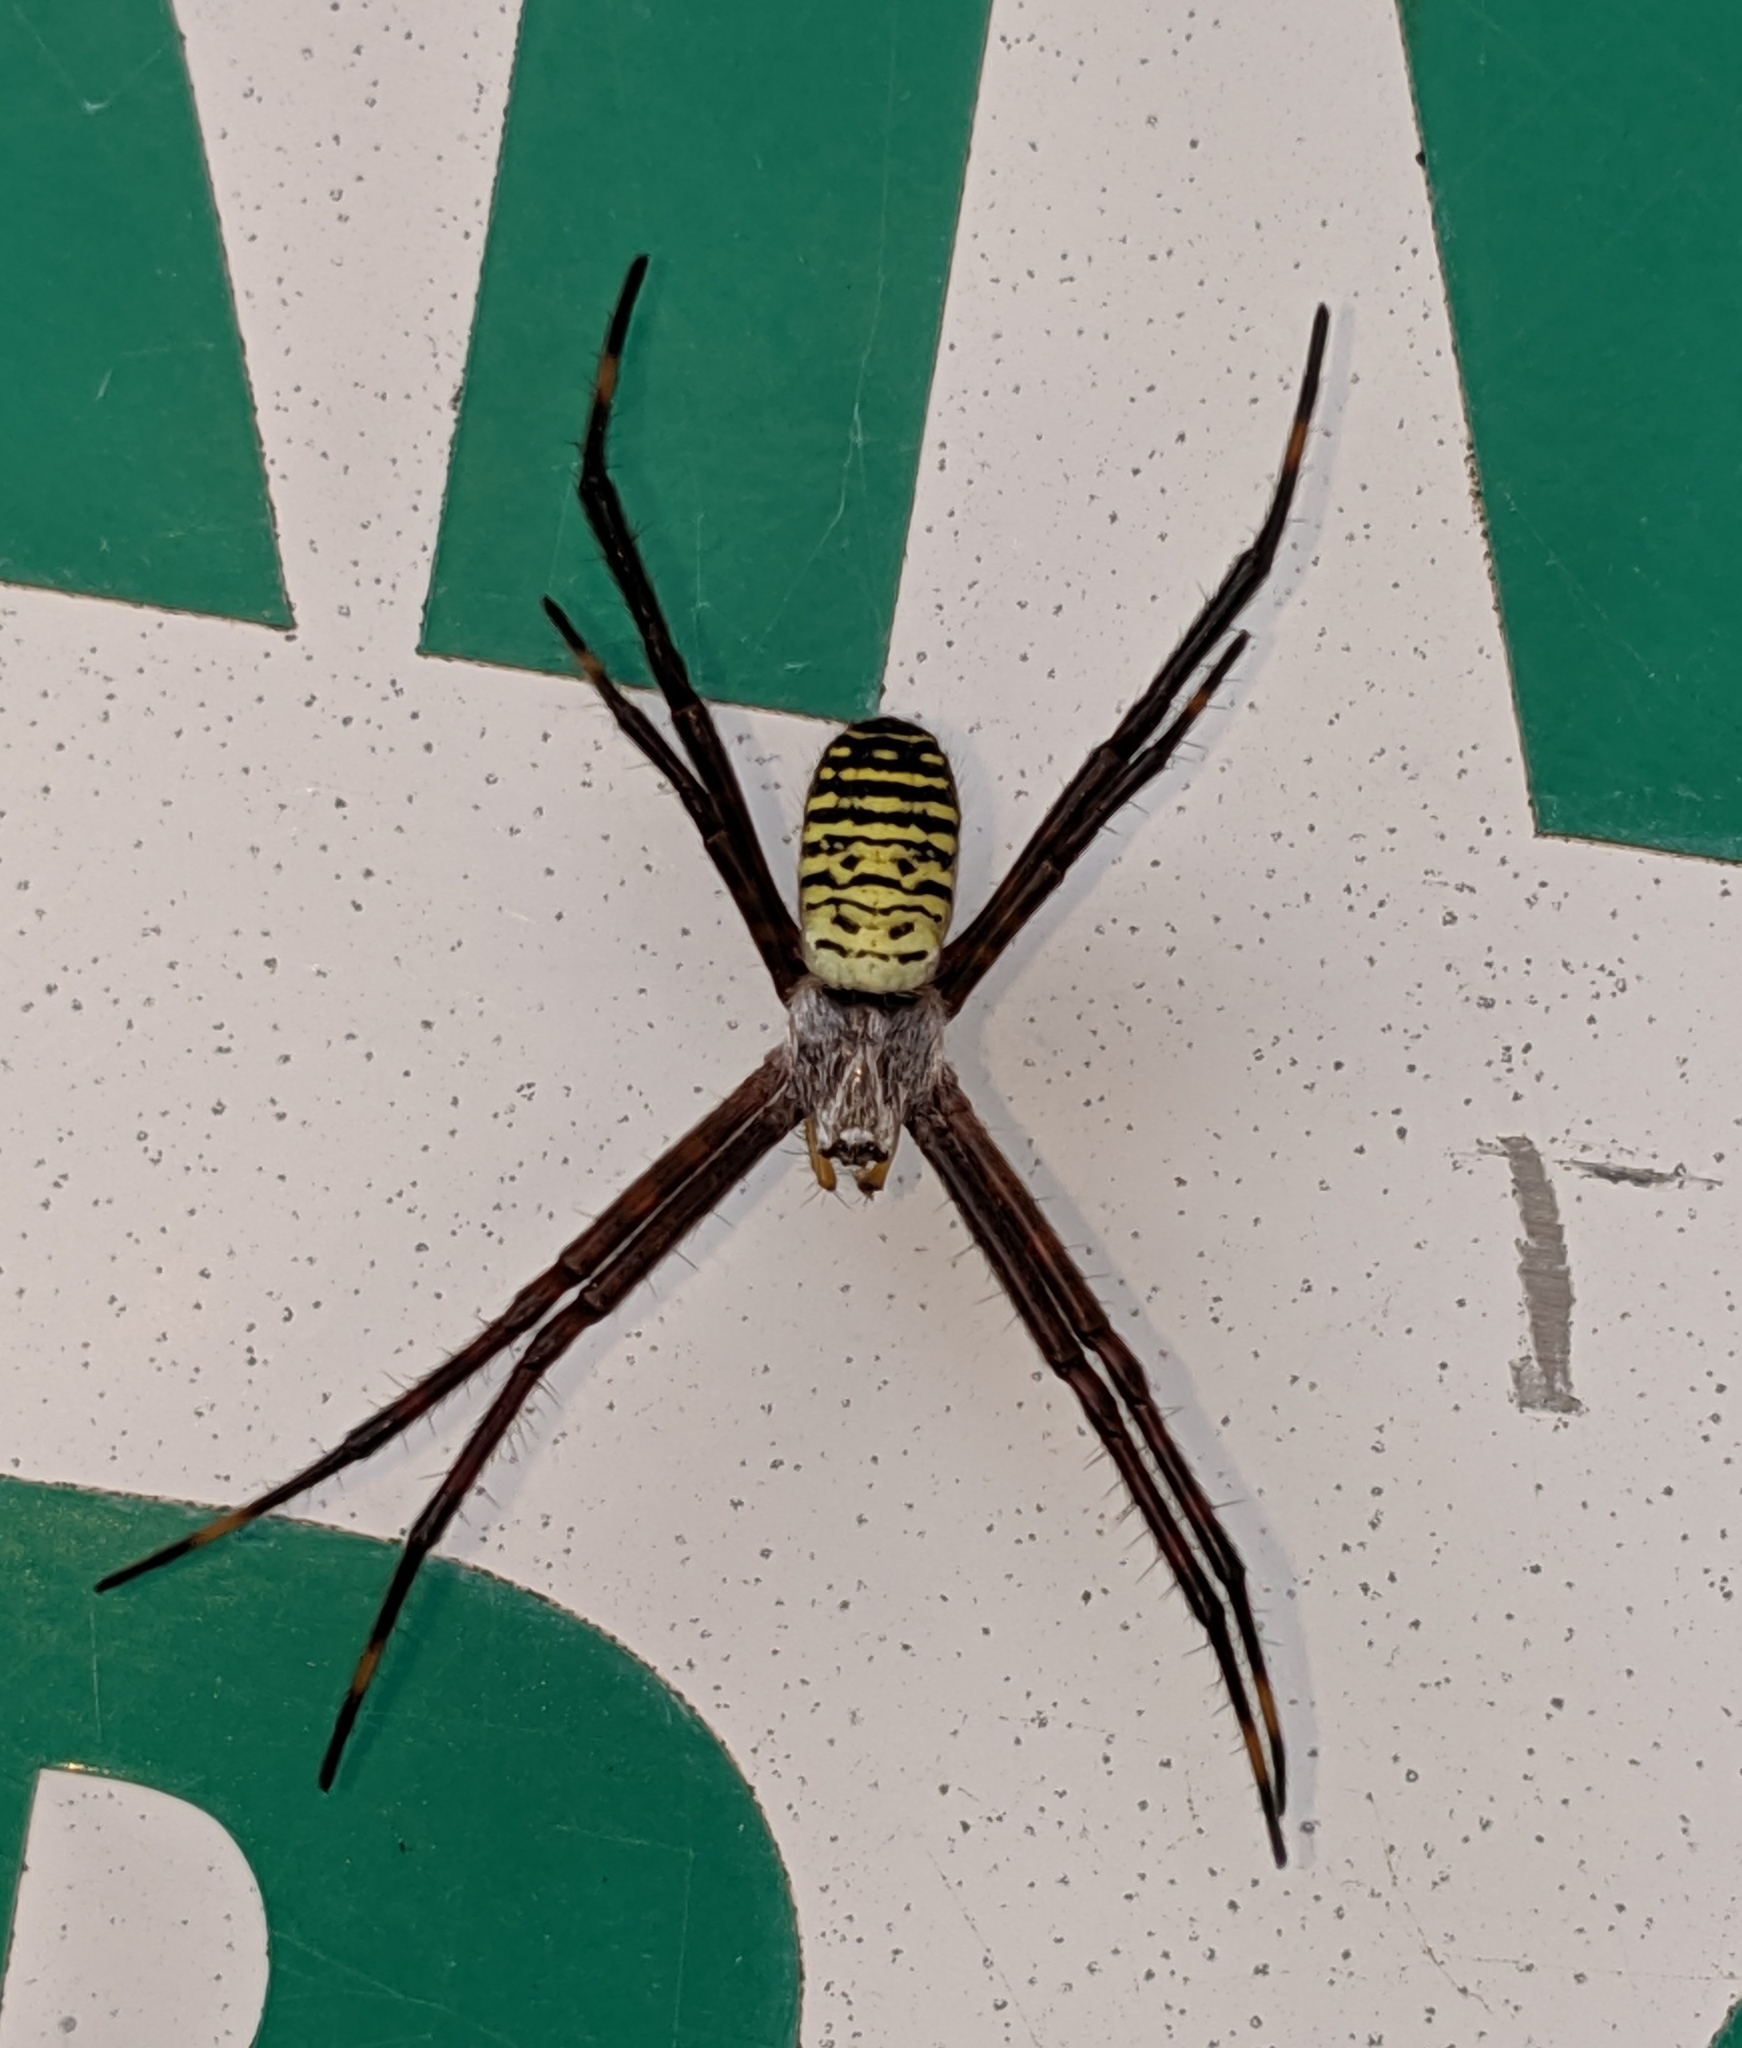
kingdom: Animalia
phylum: Arthropoda
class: Arachnida
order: Araneae
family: Araneidae
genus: Argiope
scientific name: Argiope trifasciata
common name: Banded garden spider
